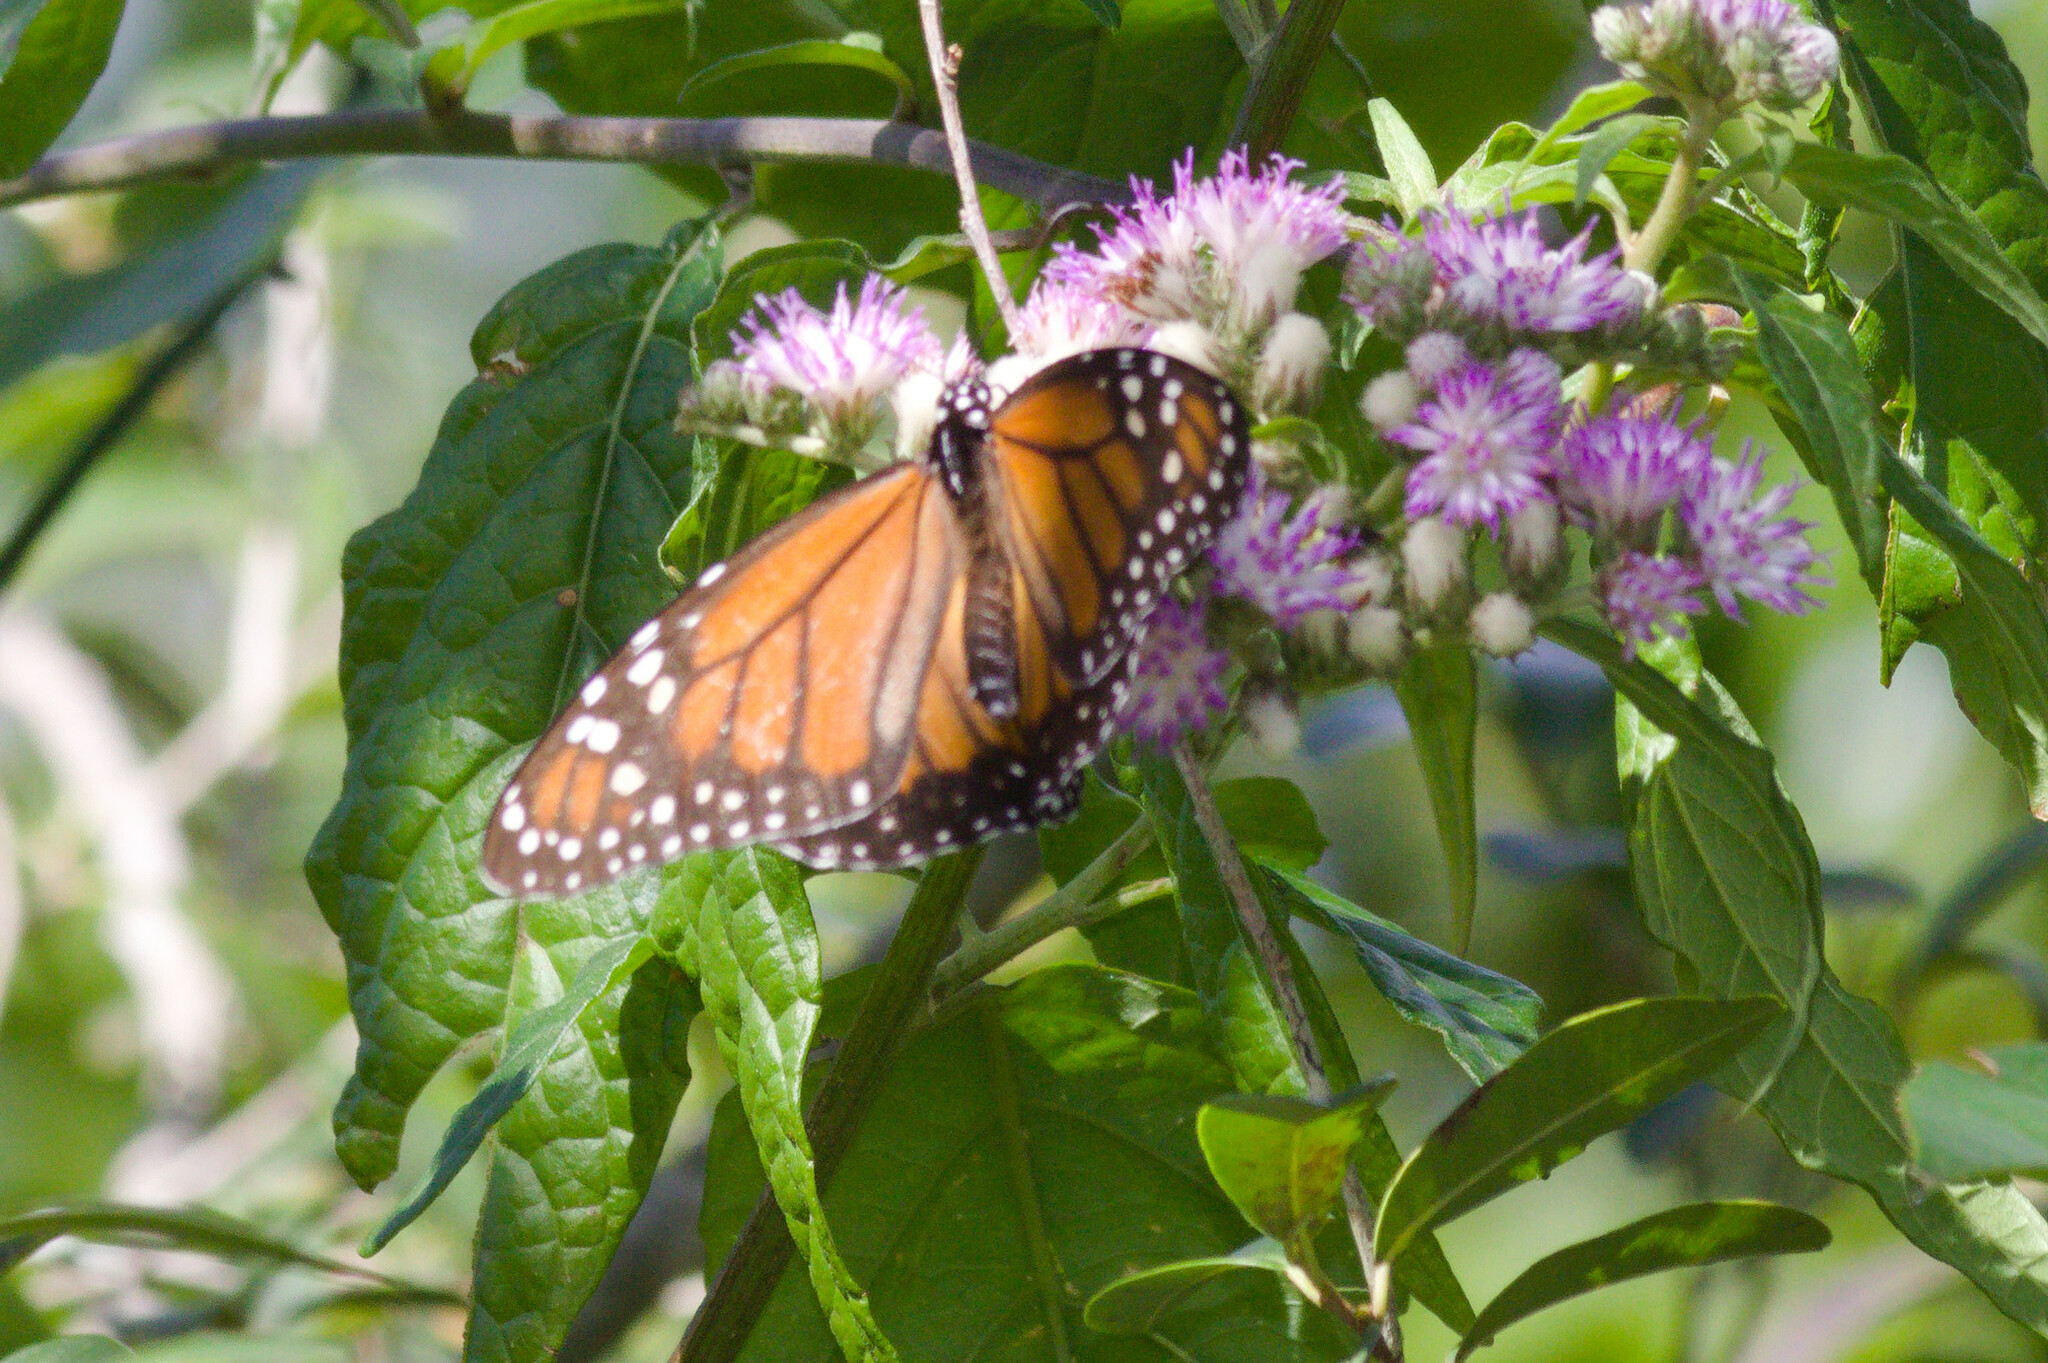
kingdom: Animalia
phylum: Arthropoda
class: Insecta
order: Lepidoptera
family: Nymphalidae
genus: Danaus
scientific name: Danaus erippus
